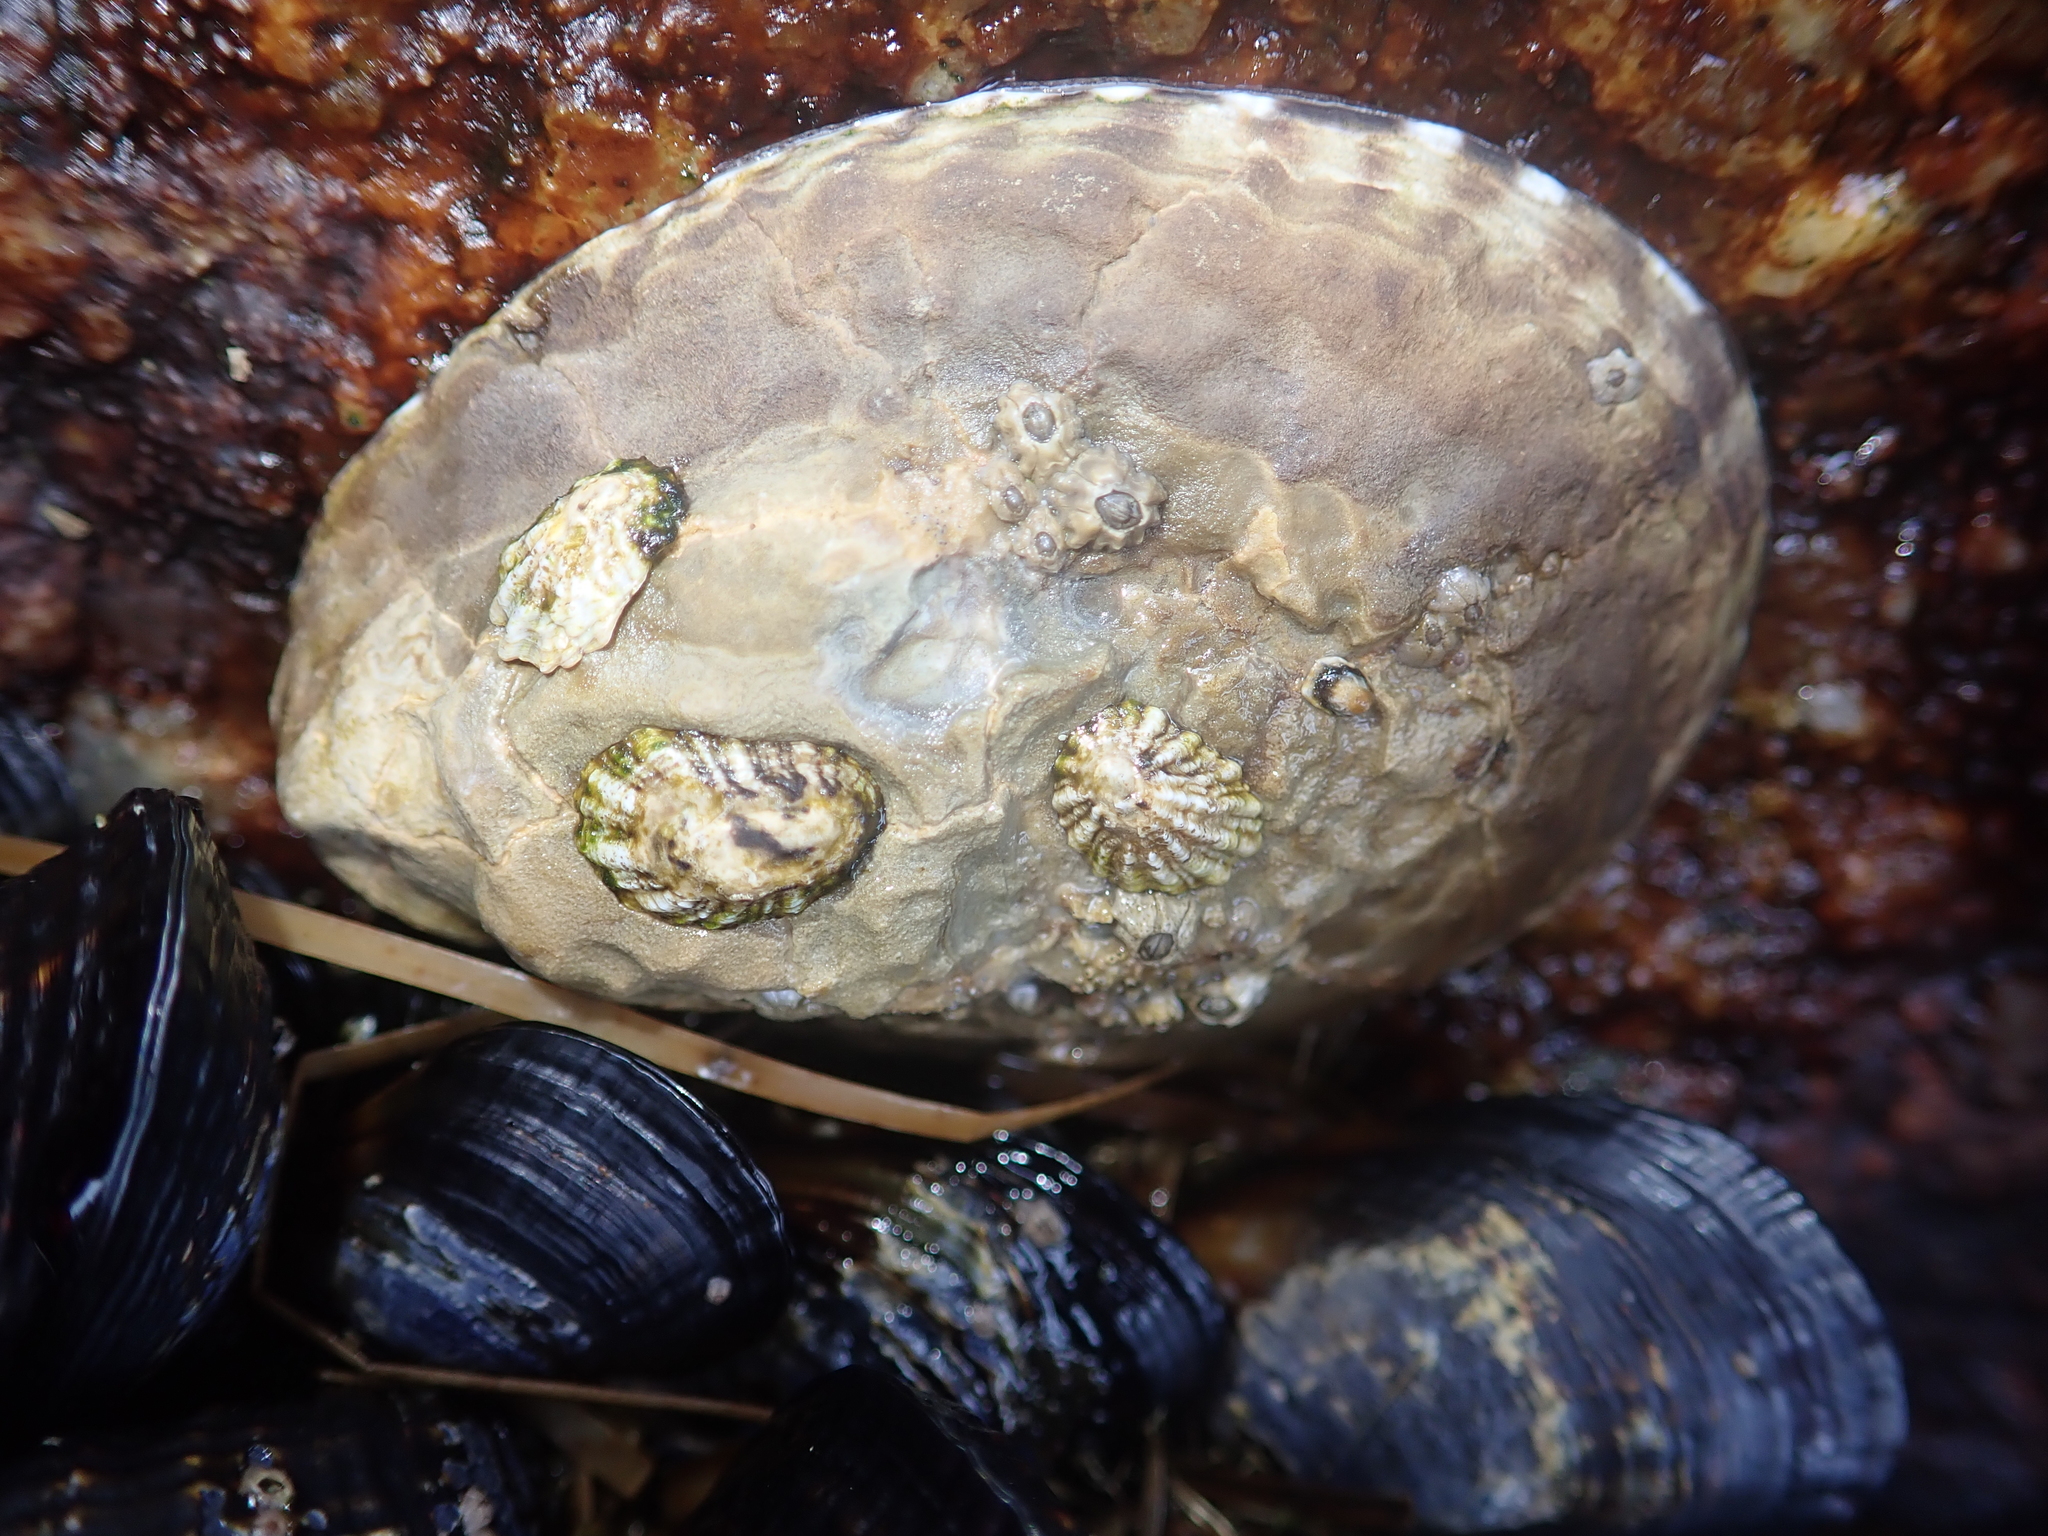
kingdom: Animalia
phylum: Mollusca
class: Gastropoda
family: Lottiidae
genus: Lottia
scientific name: Lottia gigantea
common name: Owl limpet
